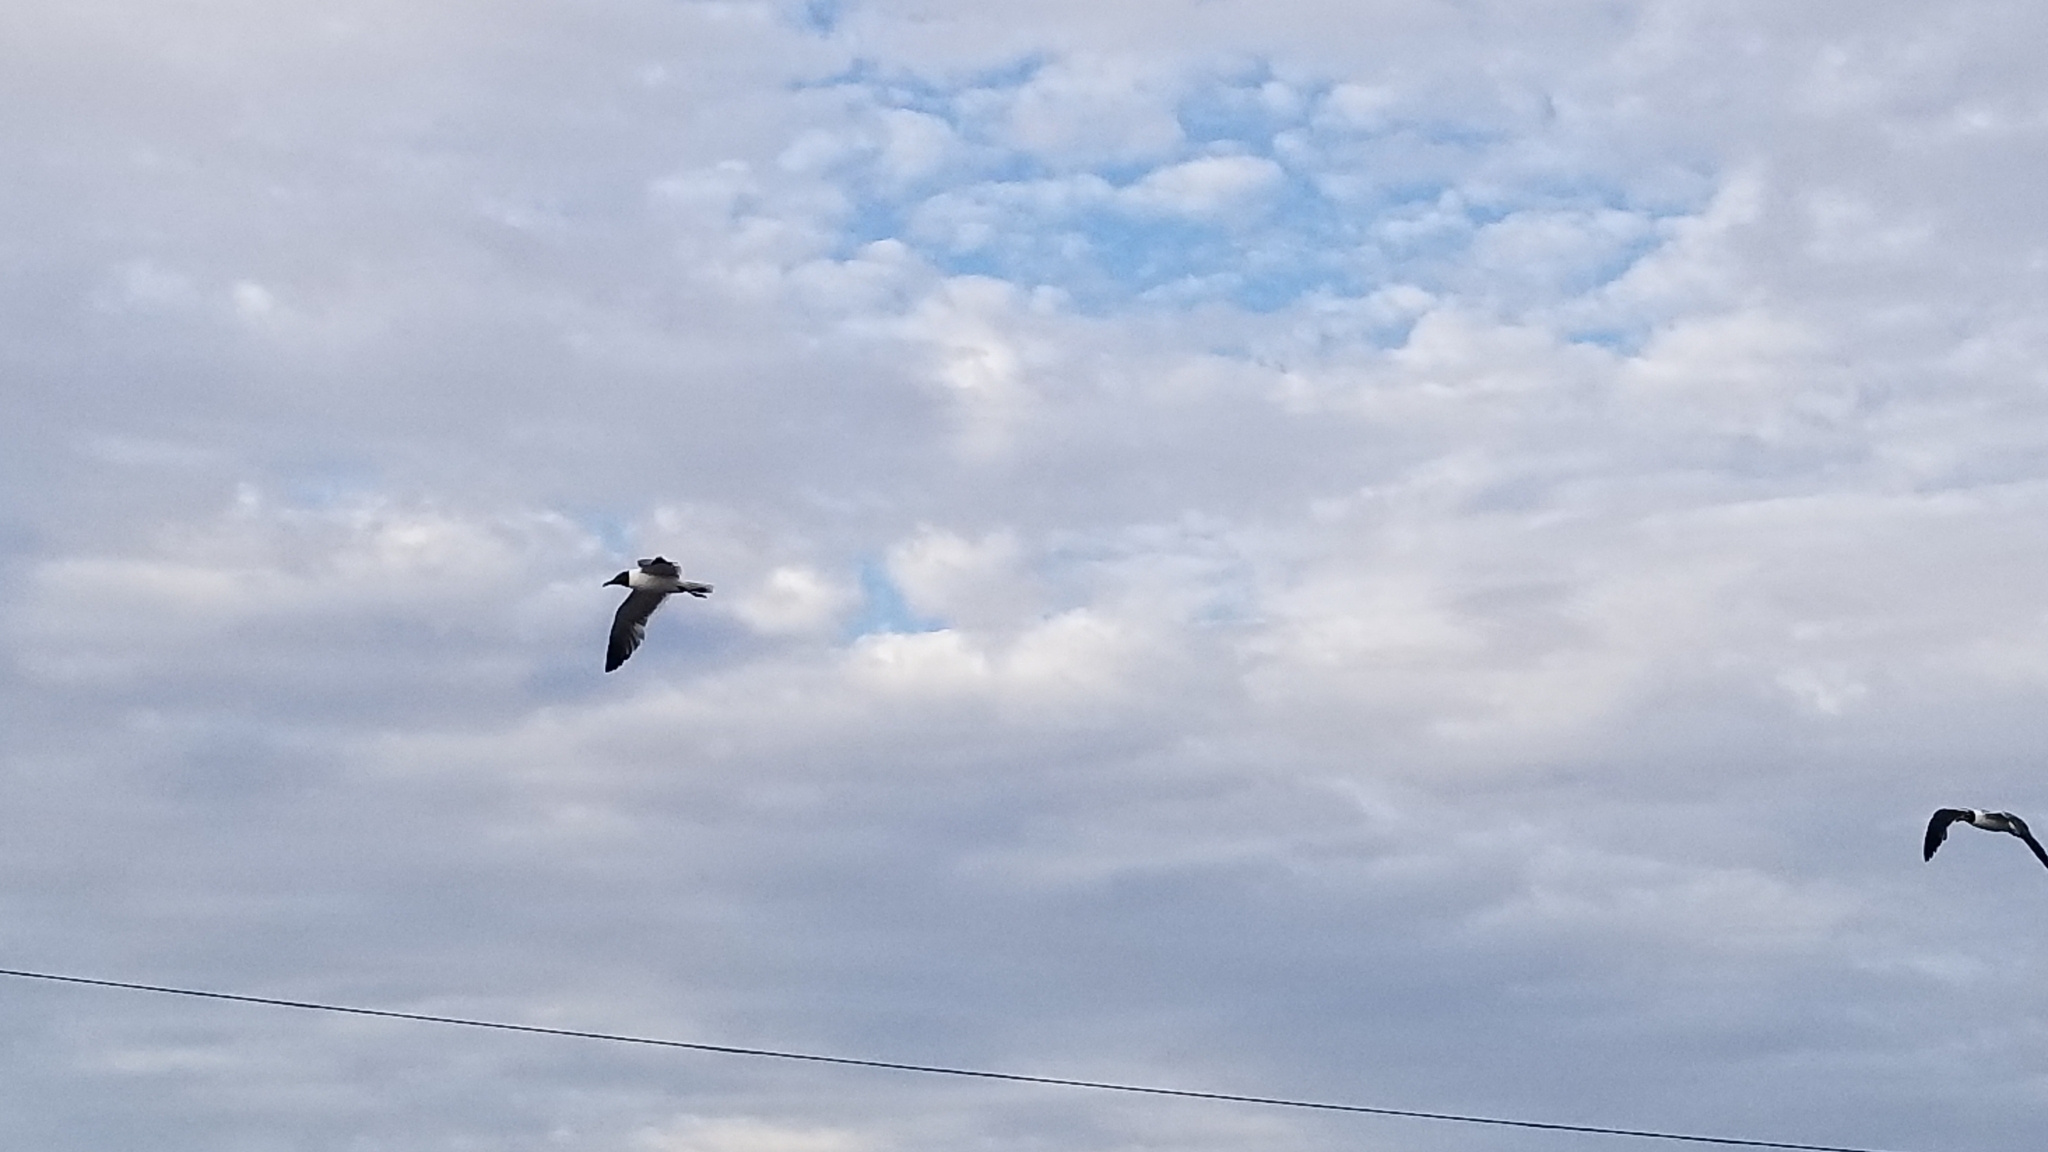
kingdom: Animalia
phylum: Chordata
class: Aves
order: Charadriiformes
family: Laridae
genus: Leucophaeus
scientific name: Leucophaeus atricilla
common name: Laughing gull
